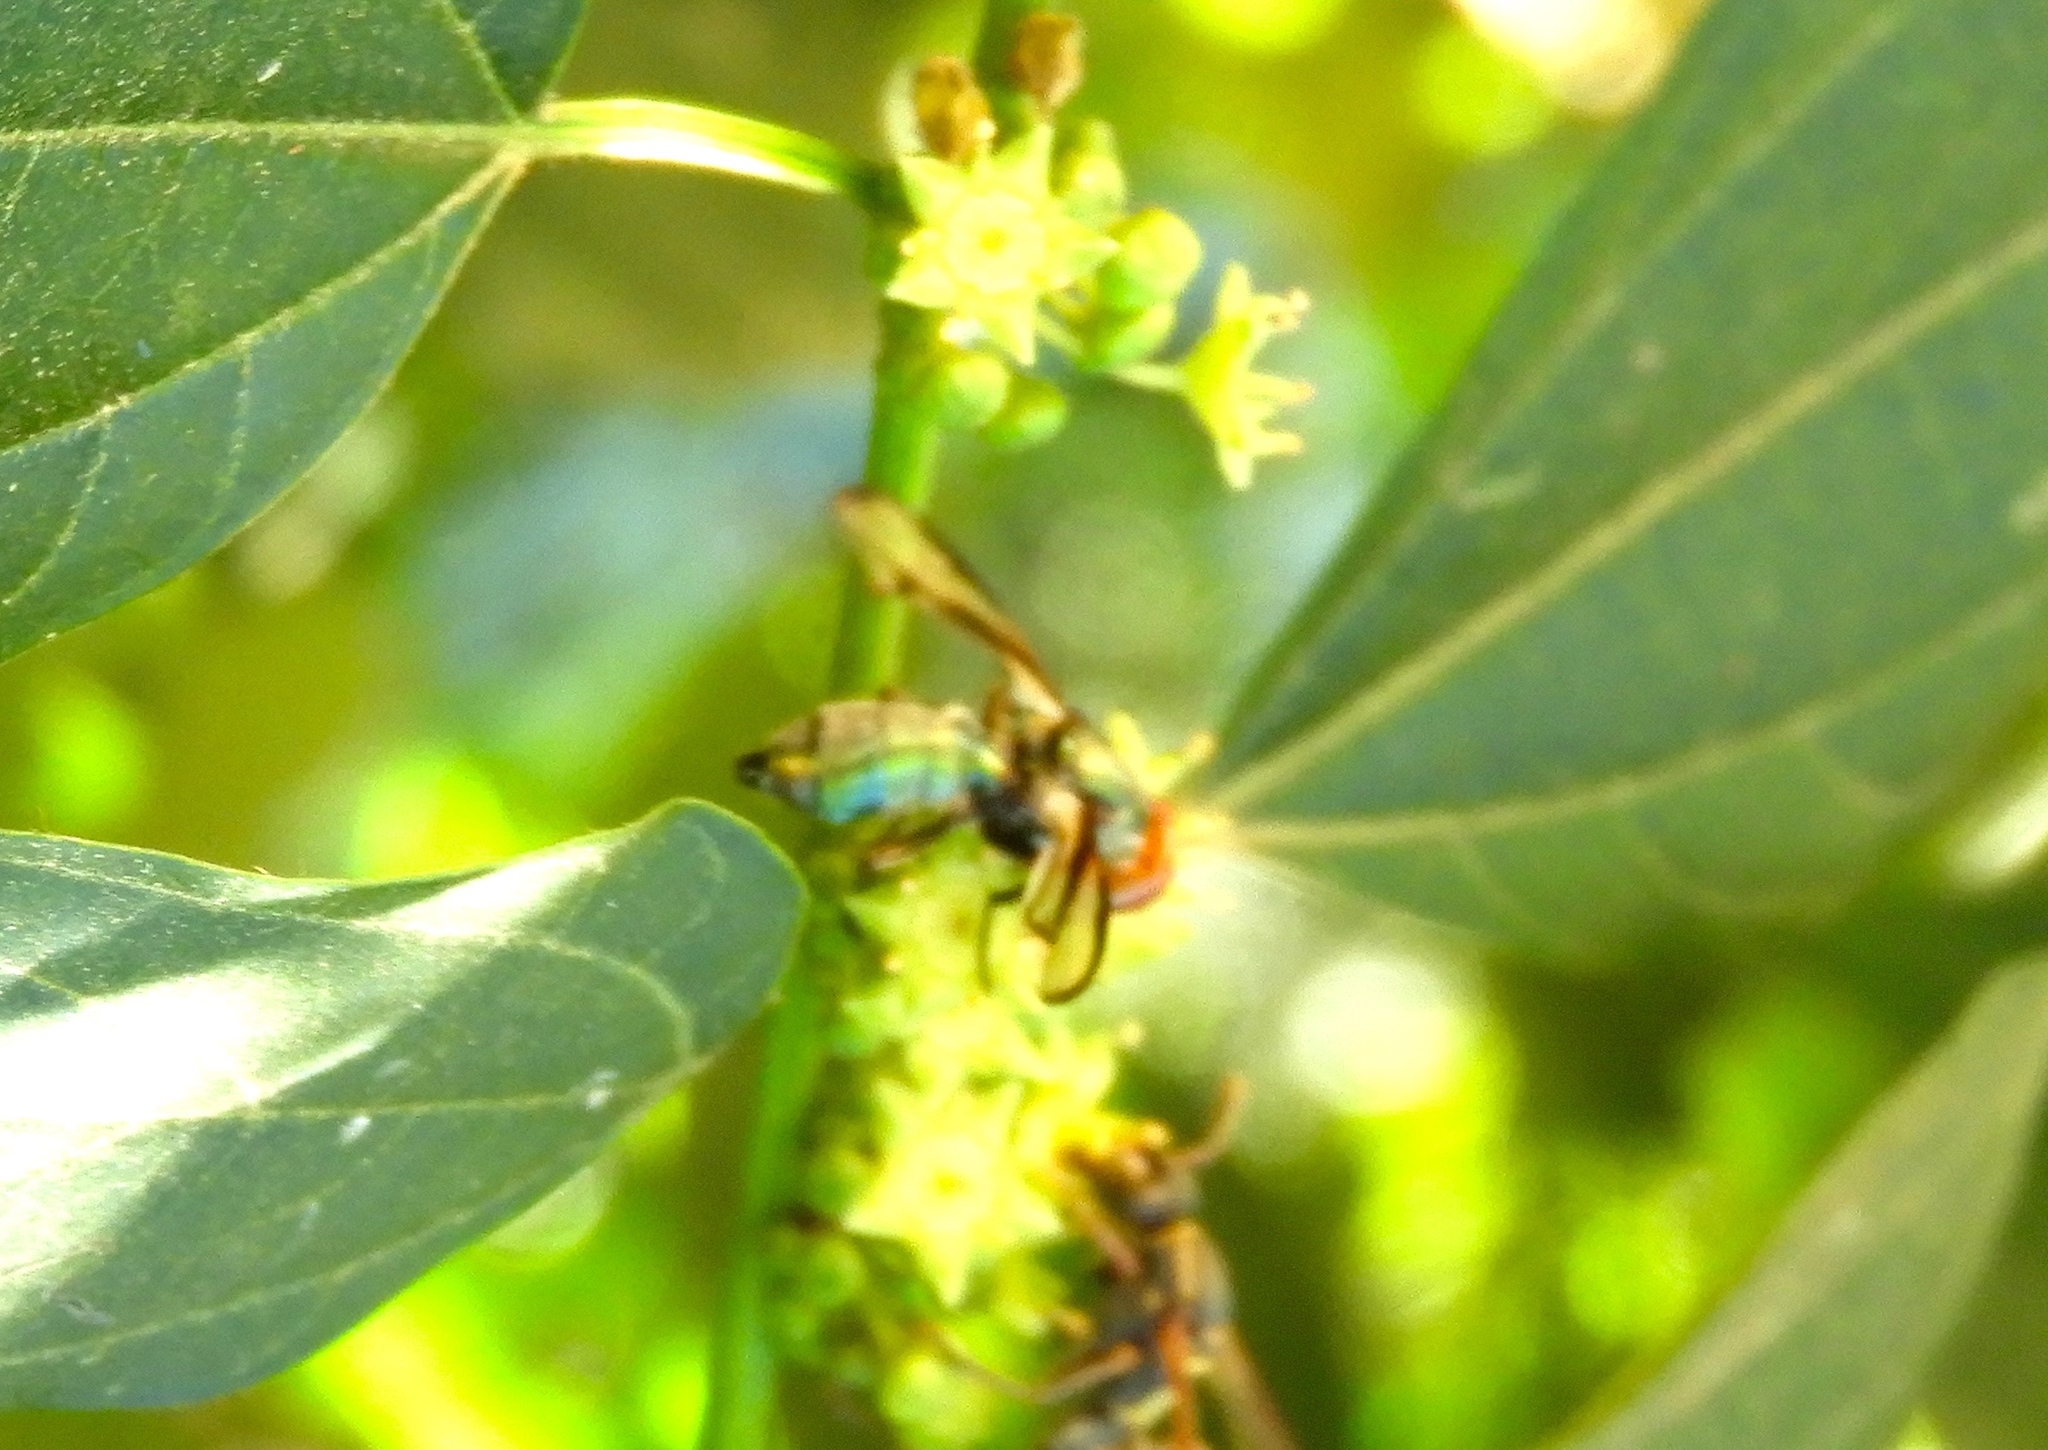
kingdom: Animalia
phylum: Arthropoda
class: Insecta
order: Diptera
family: Platystomatidae
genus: Senopterina
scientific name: Senopterina
